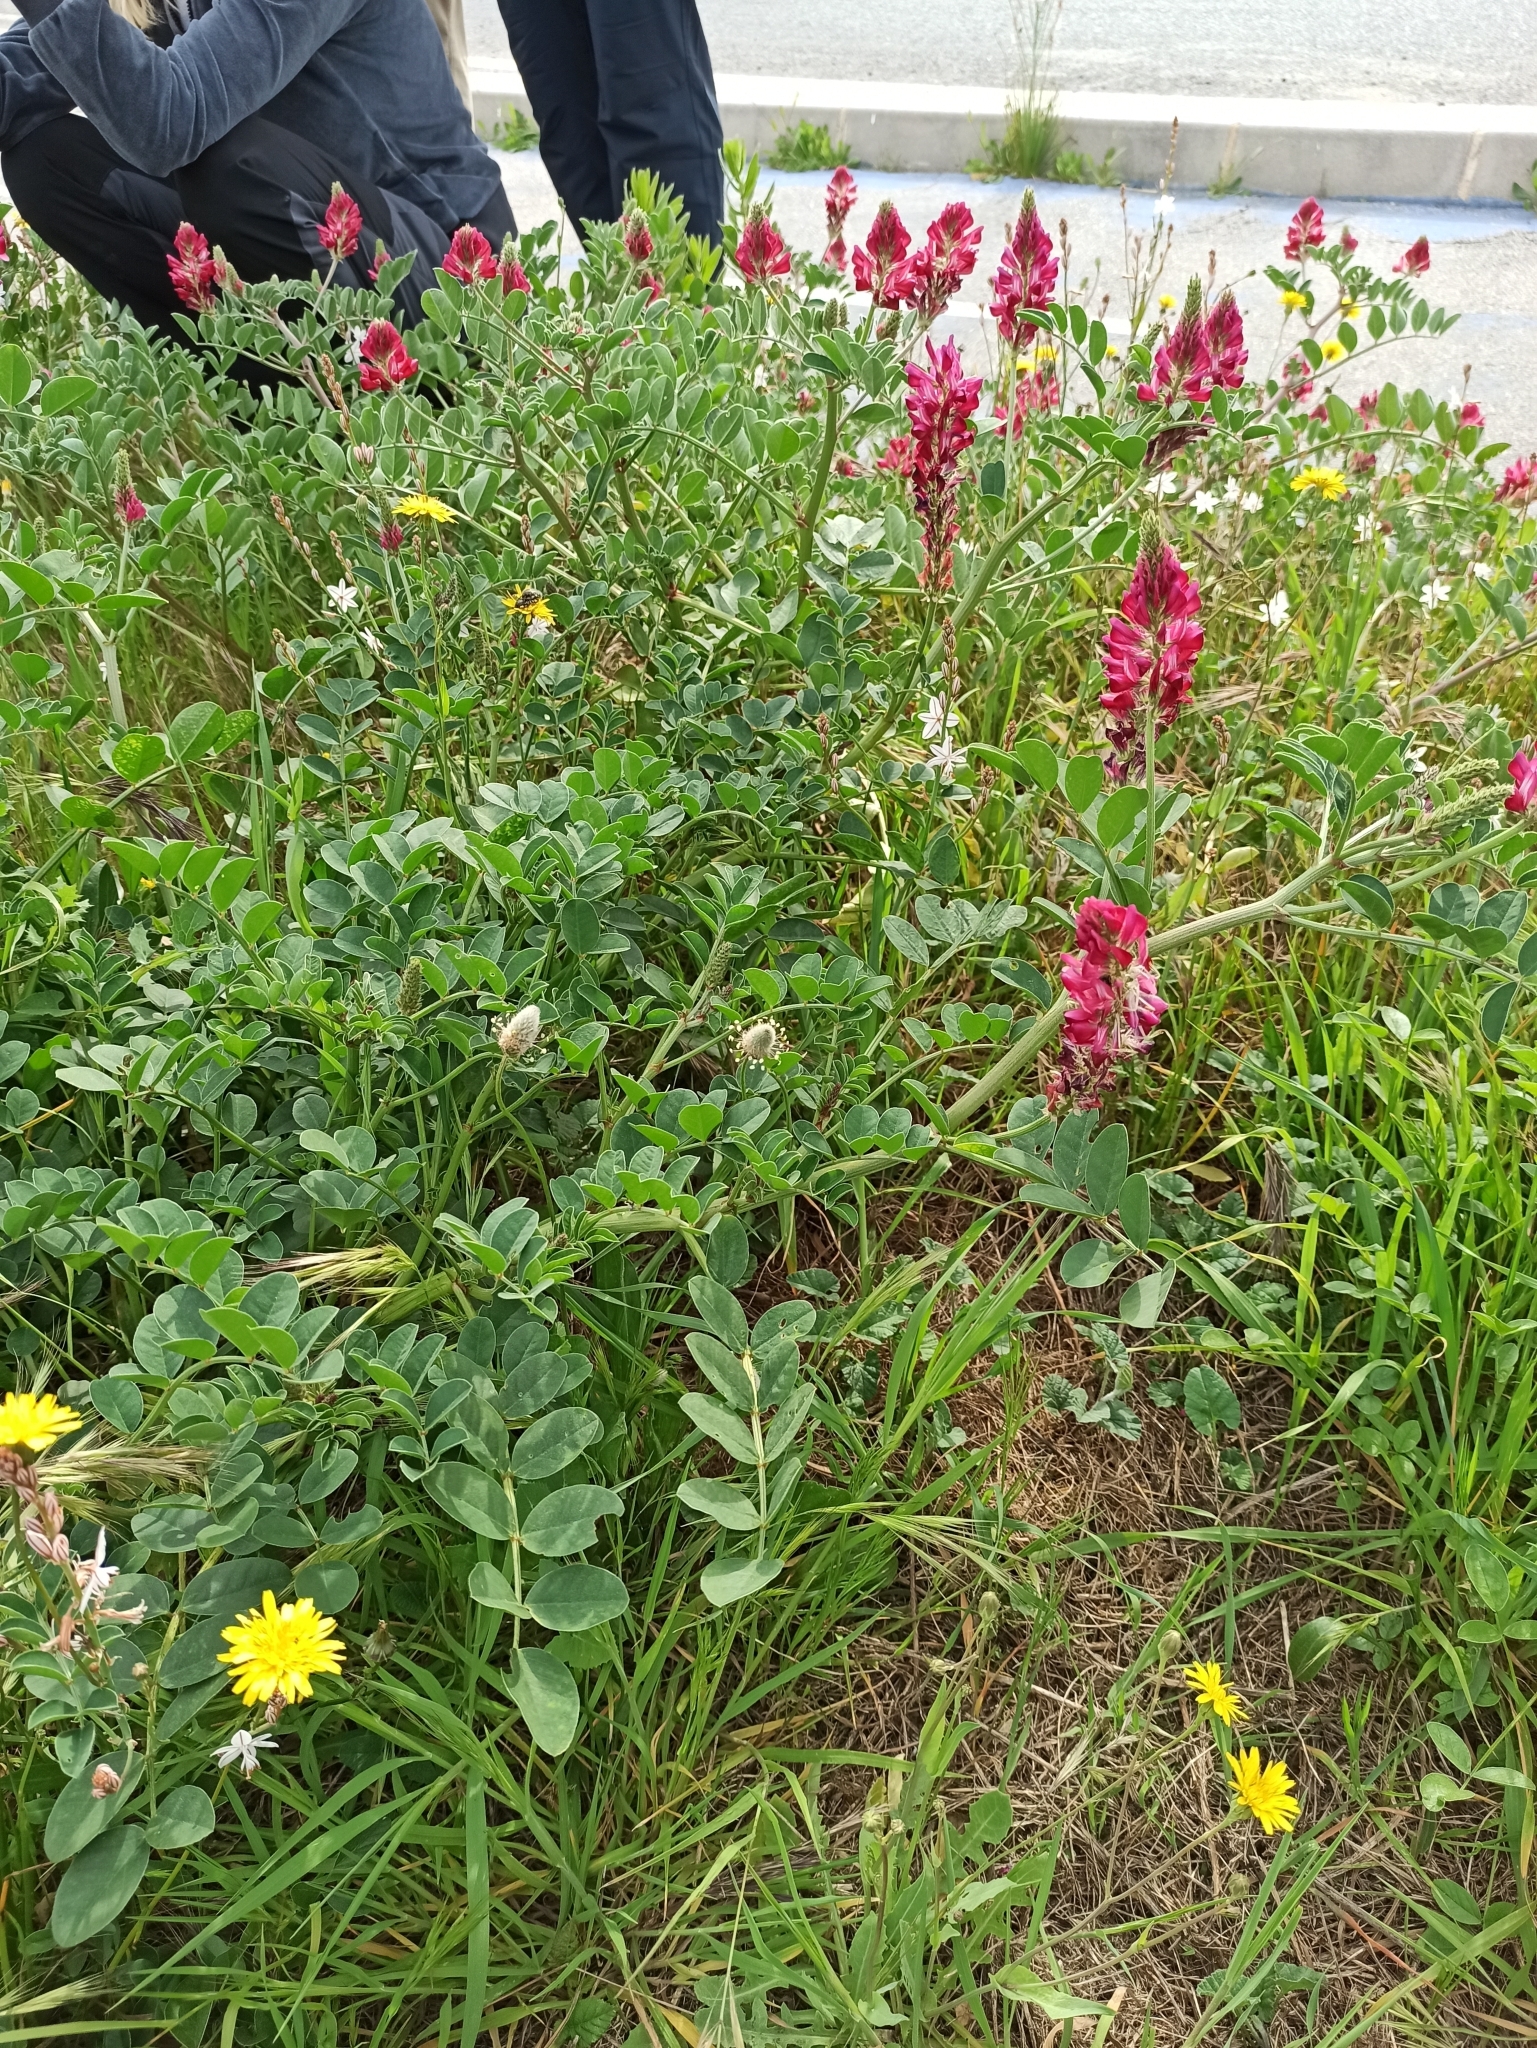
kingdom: Plantae
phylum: Tracheophyta
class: Magnoliopsida
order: Fabales
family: Fabaceae
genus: Sulla
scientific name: Sulla coronaria
